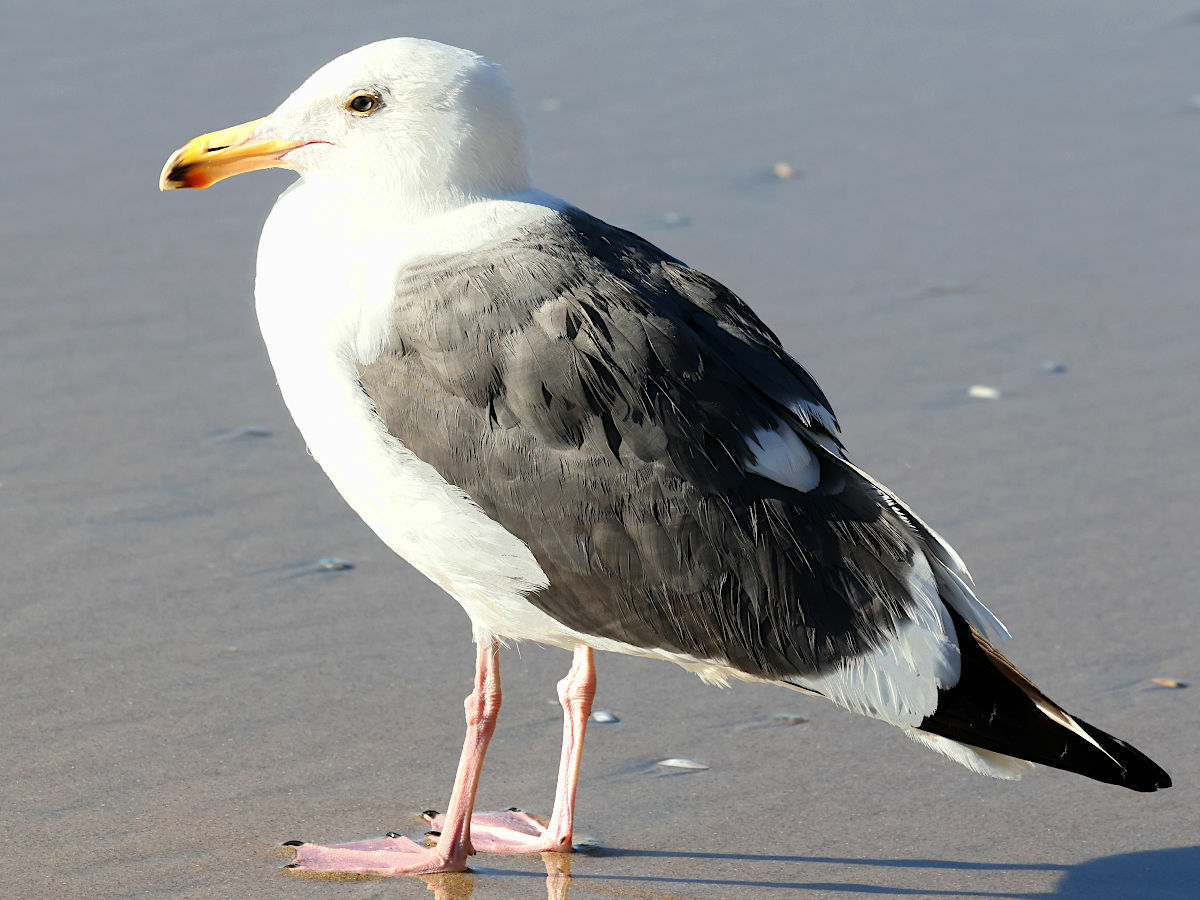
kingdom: Animalia
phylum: Chordata
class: Aves
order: Charadriiformes
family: Laridae
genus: Larus
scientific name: Larus occidentalis
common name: Western gull
